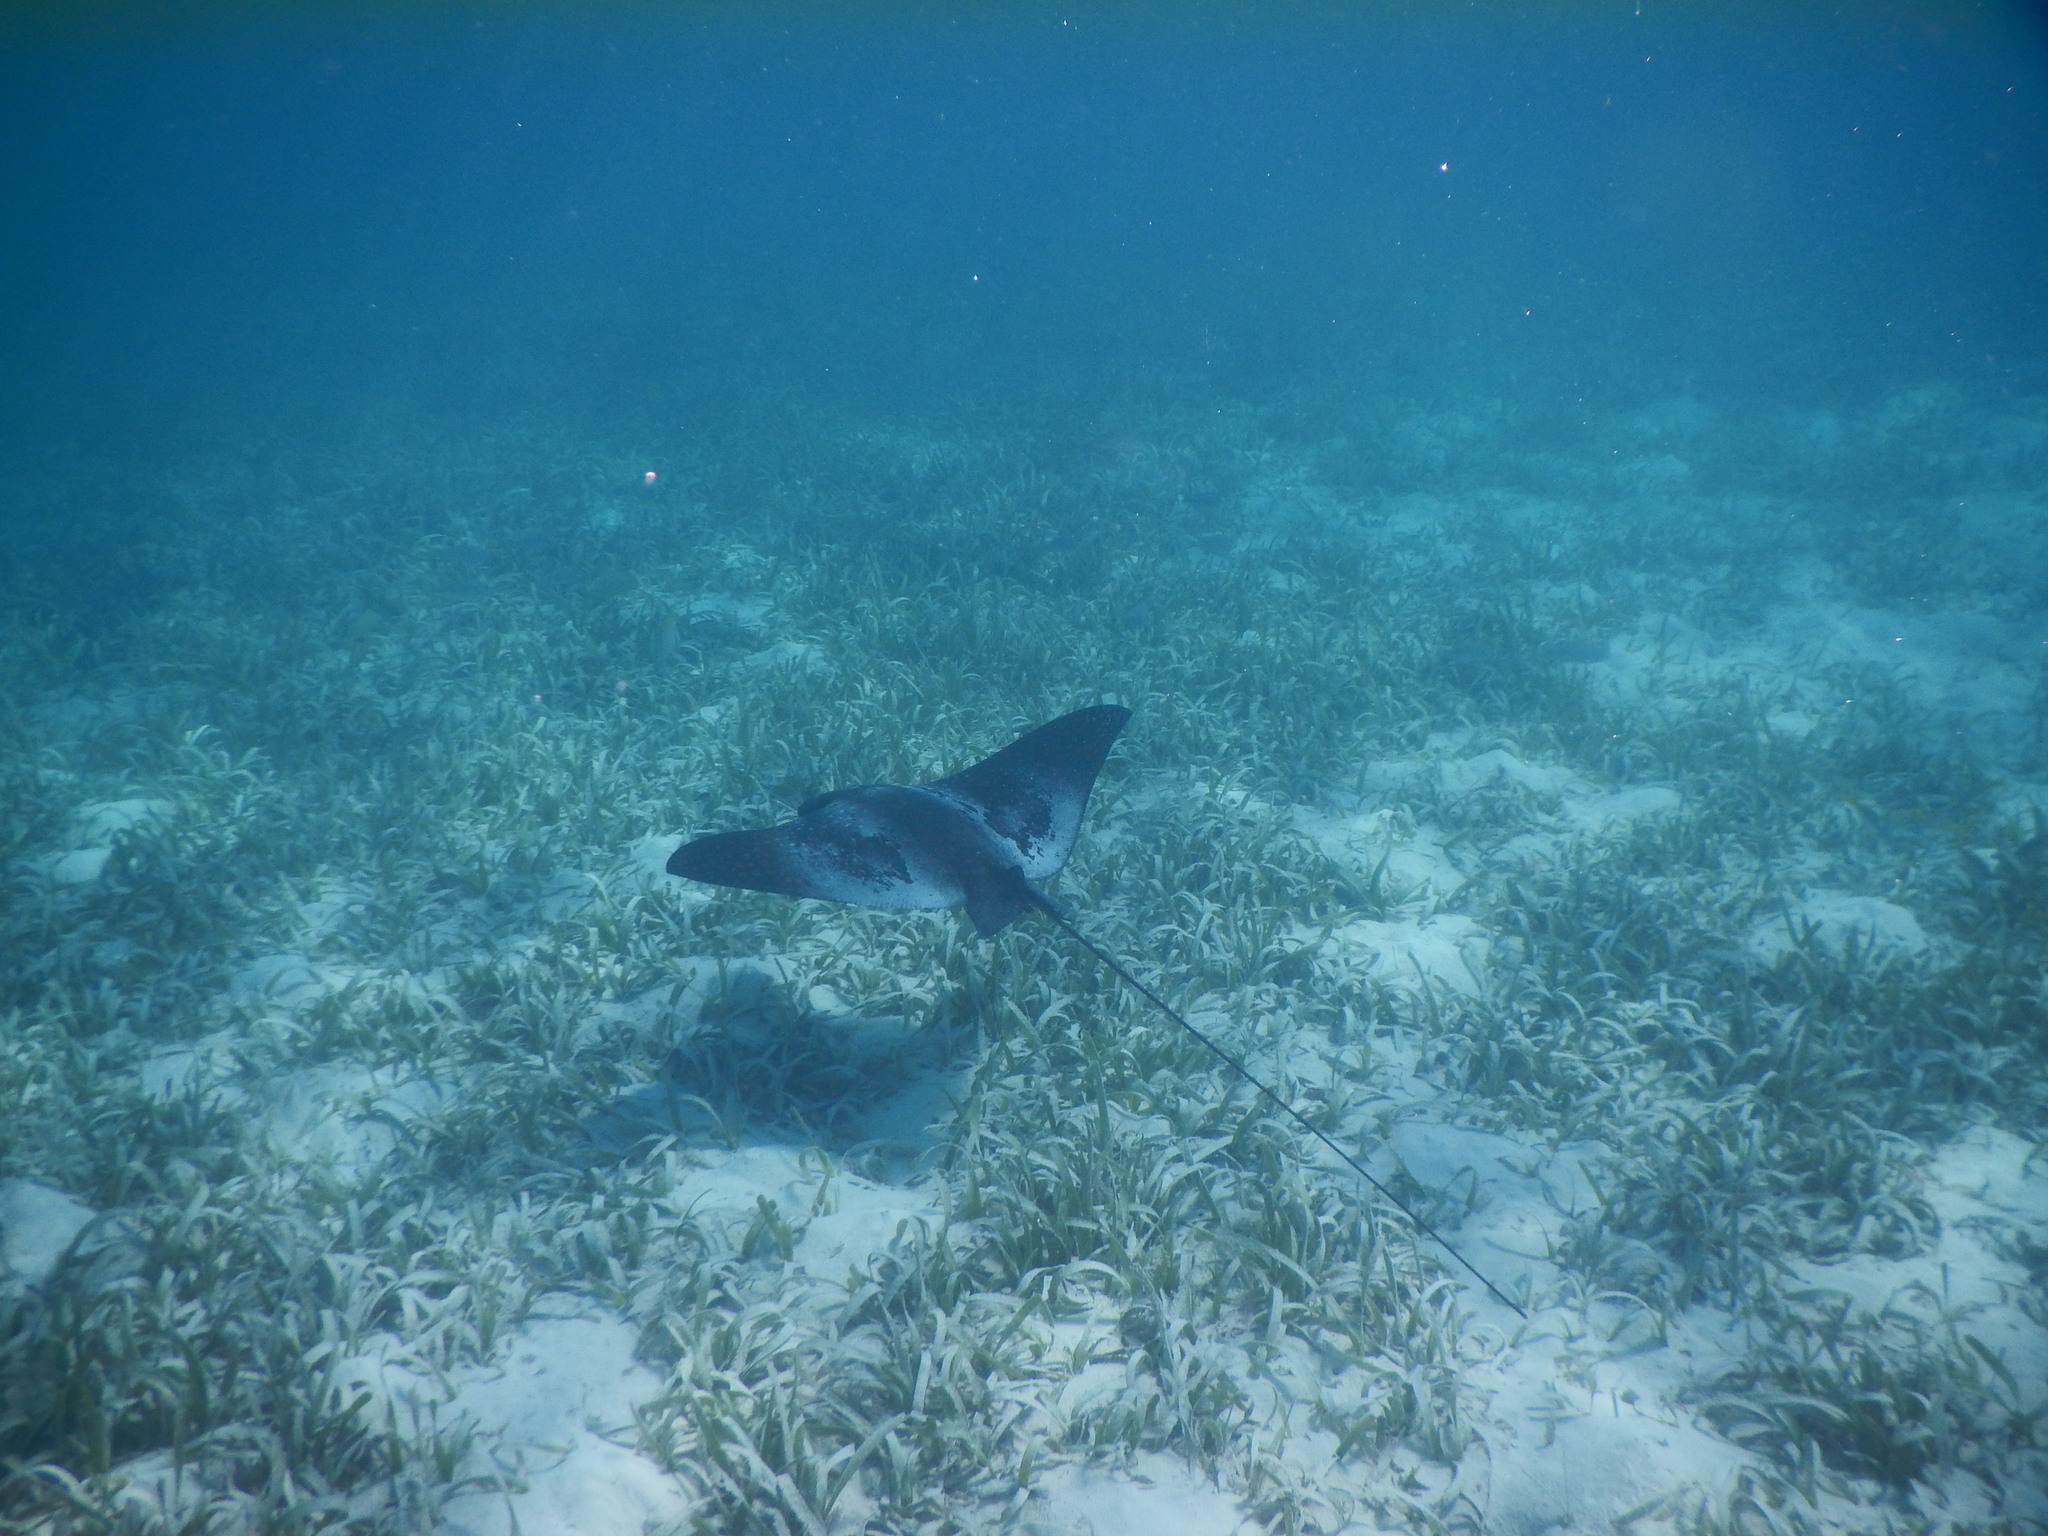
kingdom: Animalia
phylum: Chordata
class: Elasmobranchii
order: Myliobatiformes
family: Myliobatidae
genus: Aetobatus
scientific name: Aetobatus narinari
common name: Spotted eagle ray
